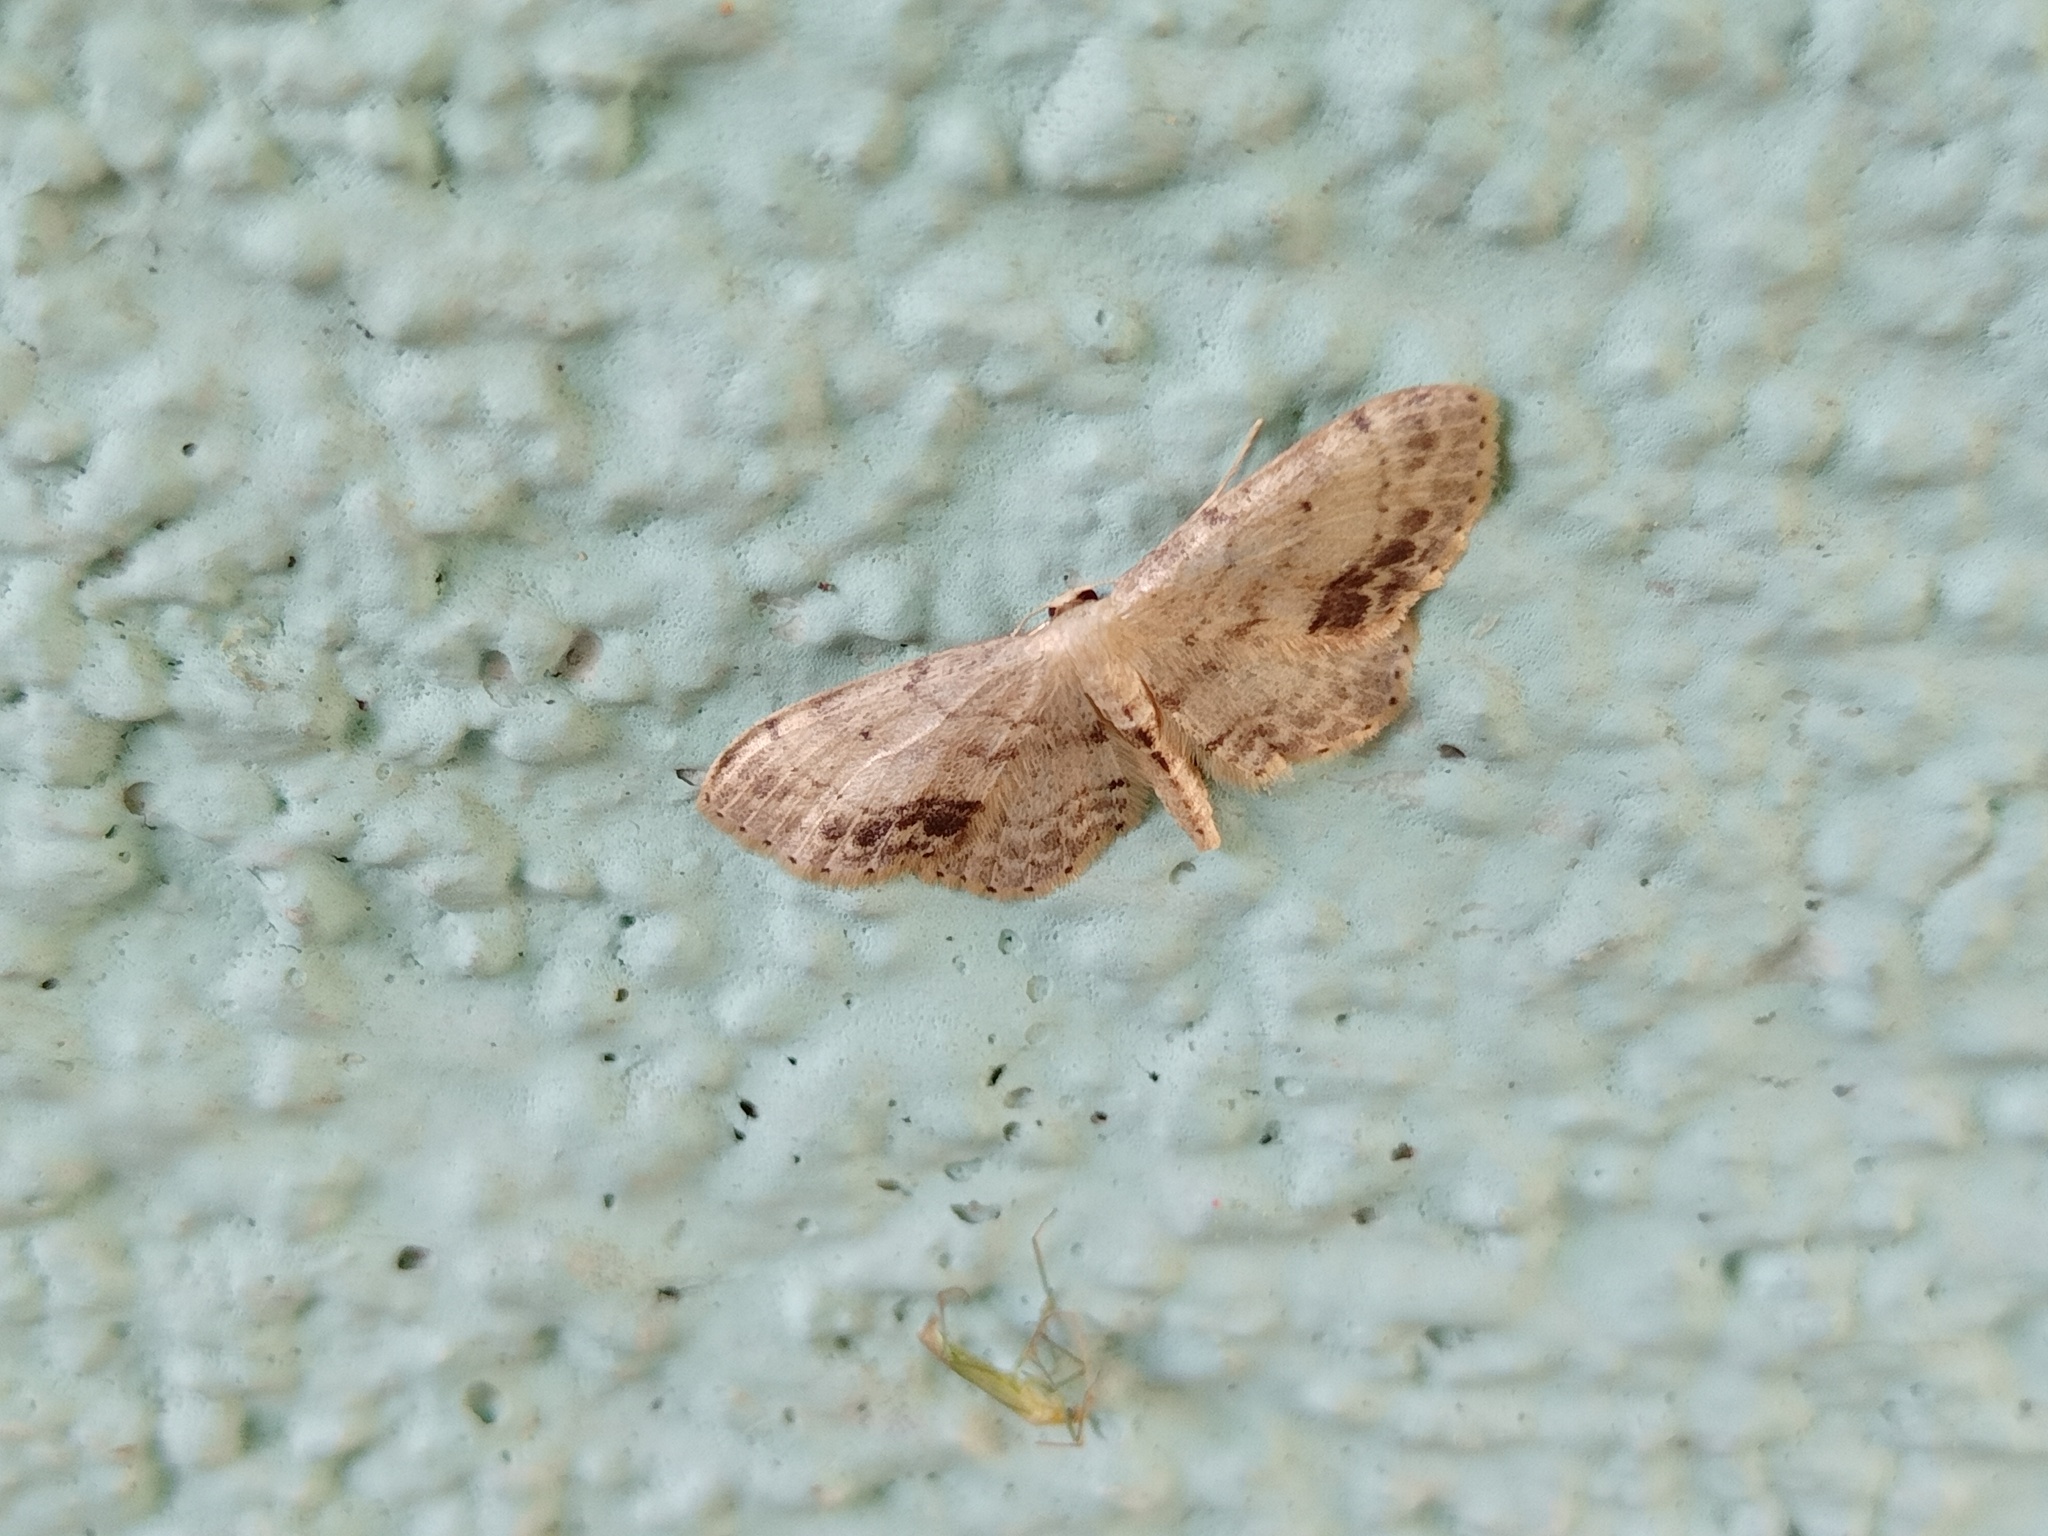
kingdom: Animalia
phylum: Arthropoda
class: Insecta
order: Lepidoptera
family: Geometridae
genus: Idaea
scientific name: Idaea dimidiata
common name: Single-dotted wave
